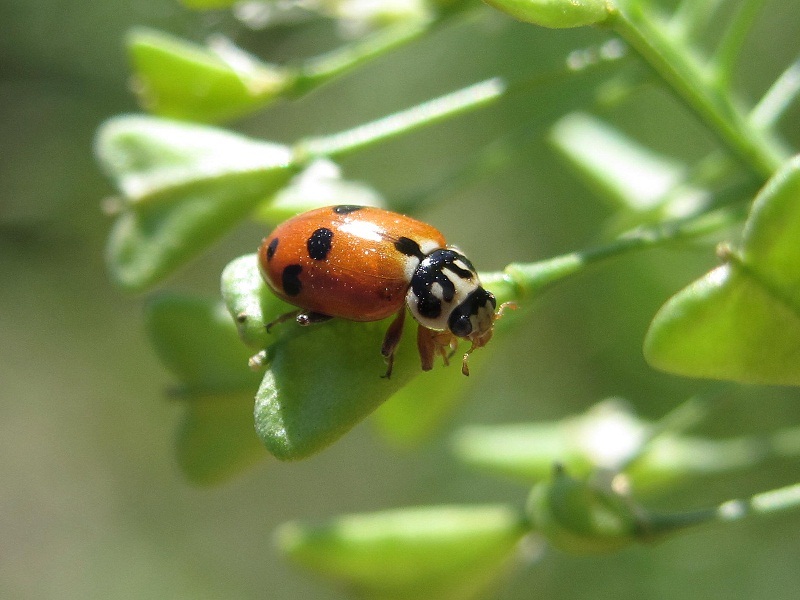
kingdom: Animalia
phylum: Arthropoda
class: Insecta
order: Coleoptera
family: Coccinellidae
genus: Hippodamia
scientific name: Hippodamia variegata
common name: Ladybird beetle
